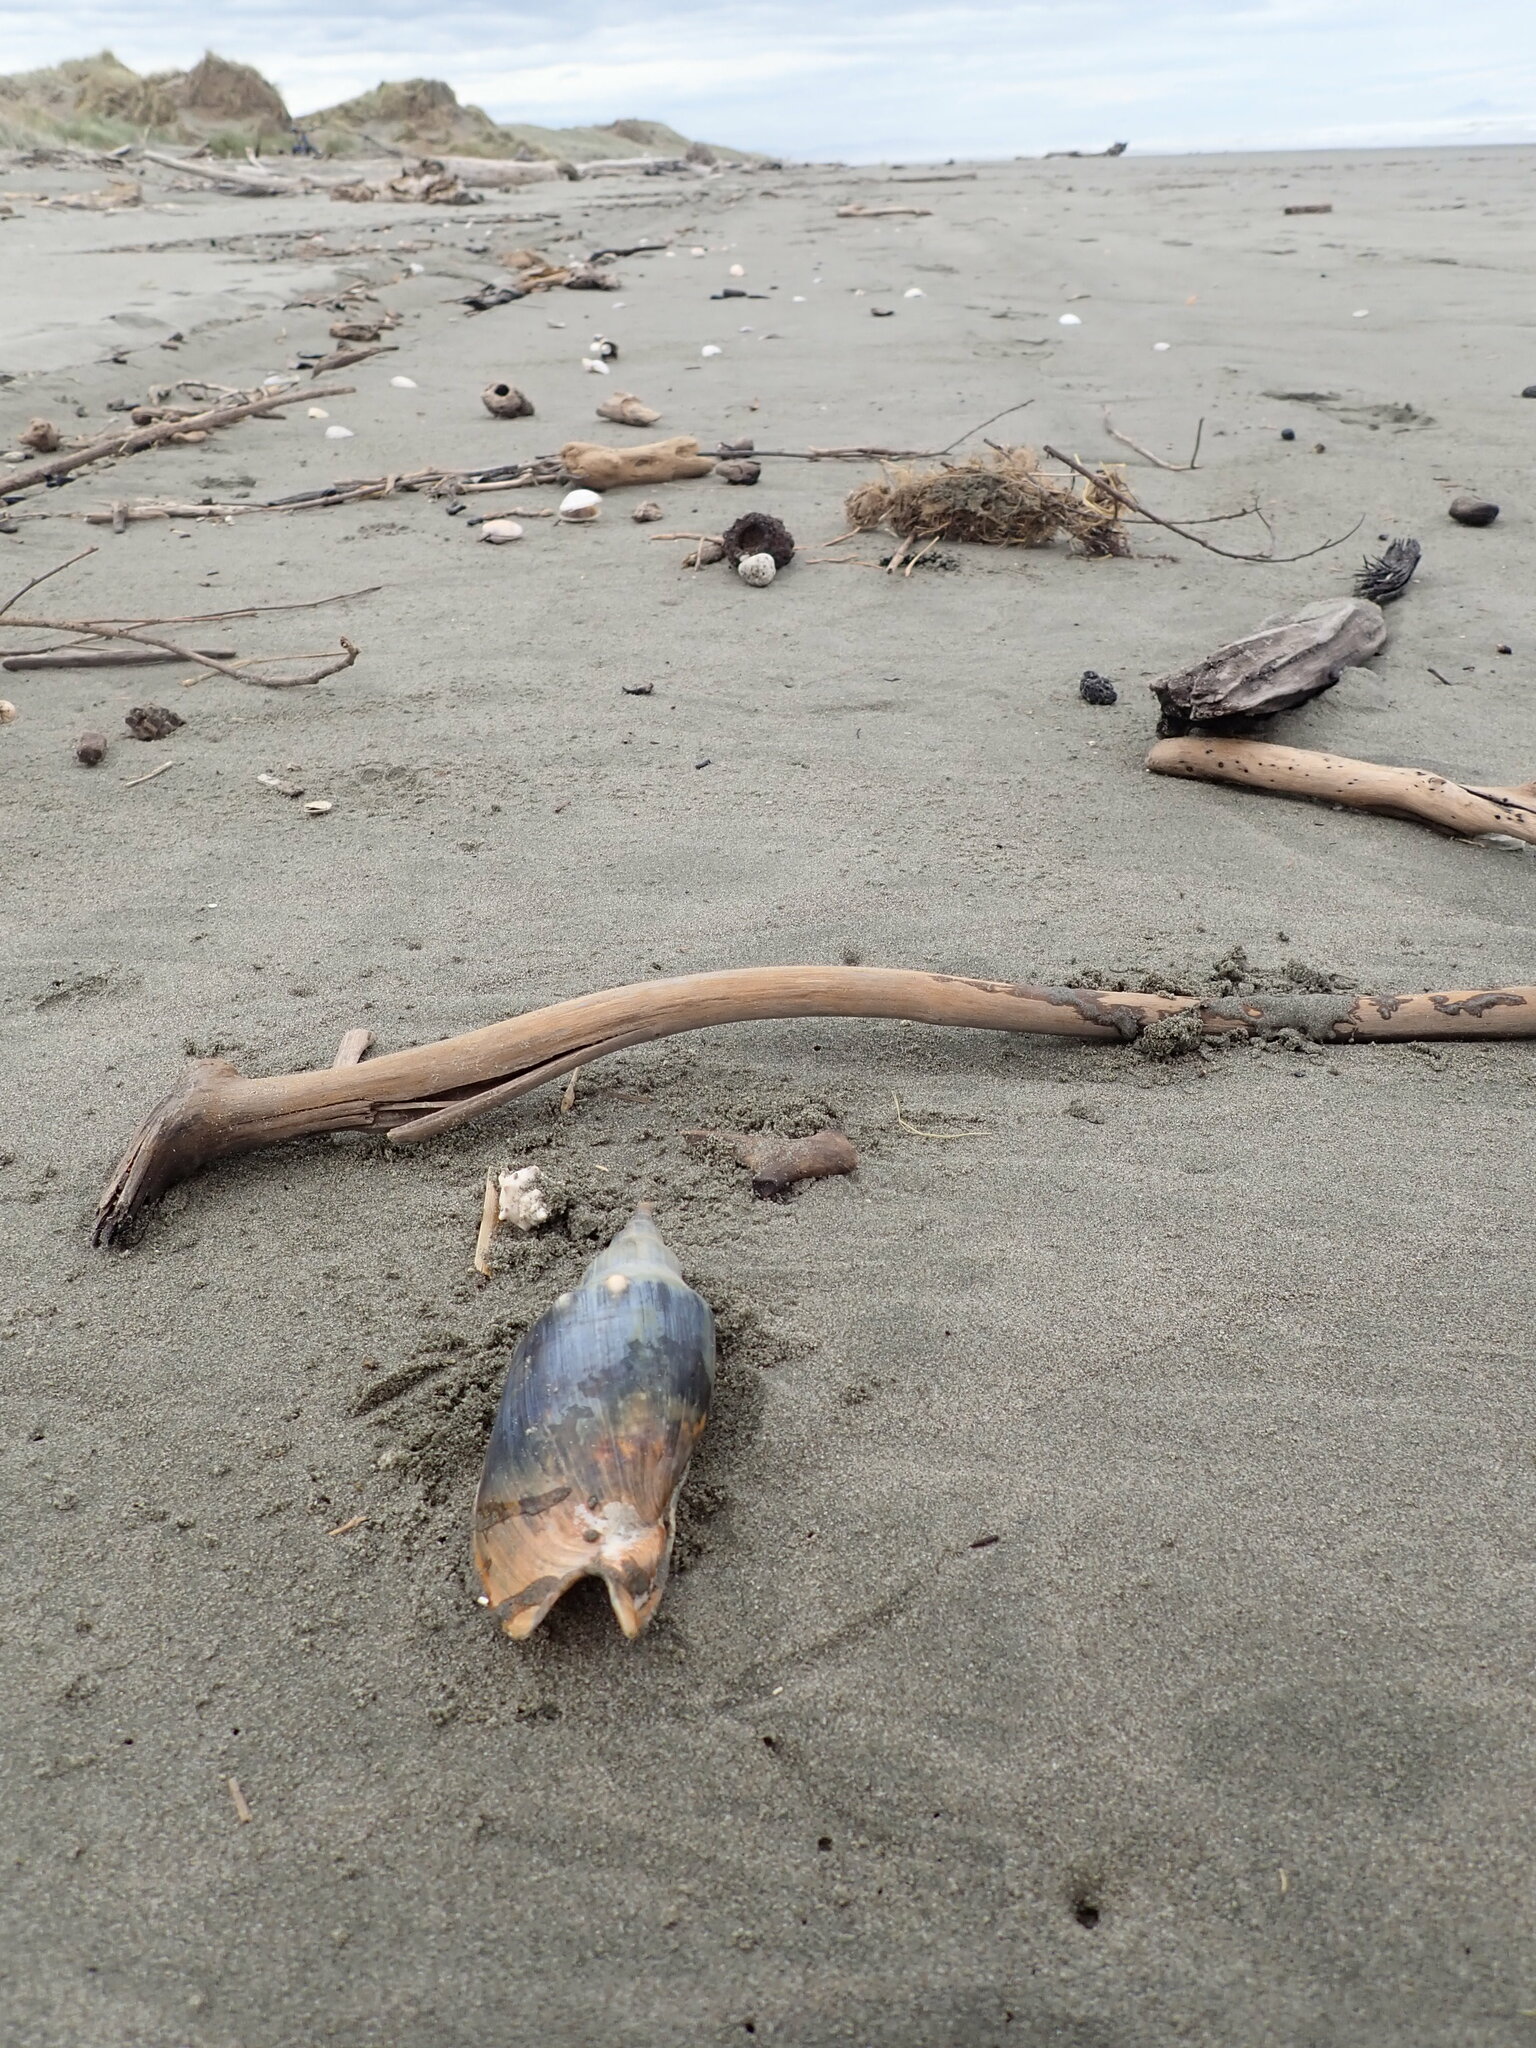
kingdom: Animalia
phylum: Mollusca
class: Gastropoda
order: Neogastropoda
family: Volutidae
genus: Alcithoe
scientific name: Alcithoe arabica
